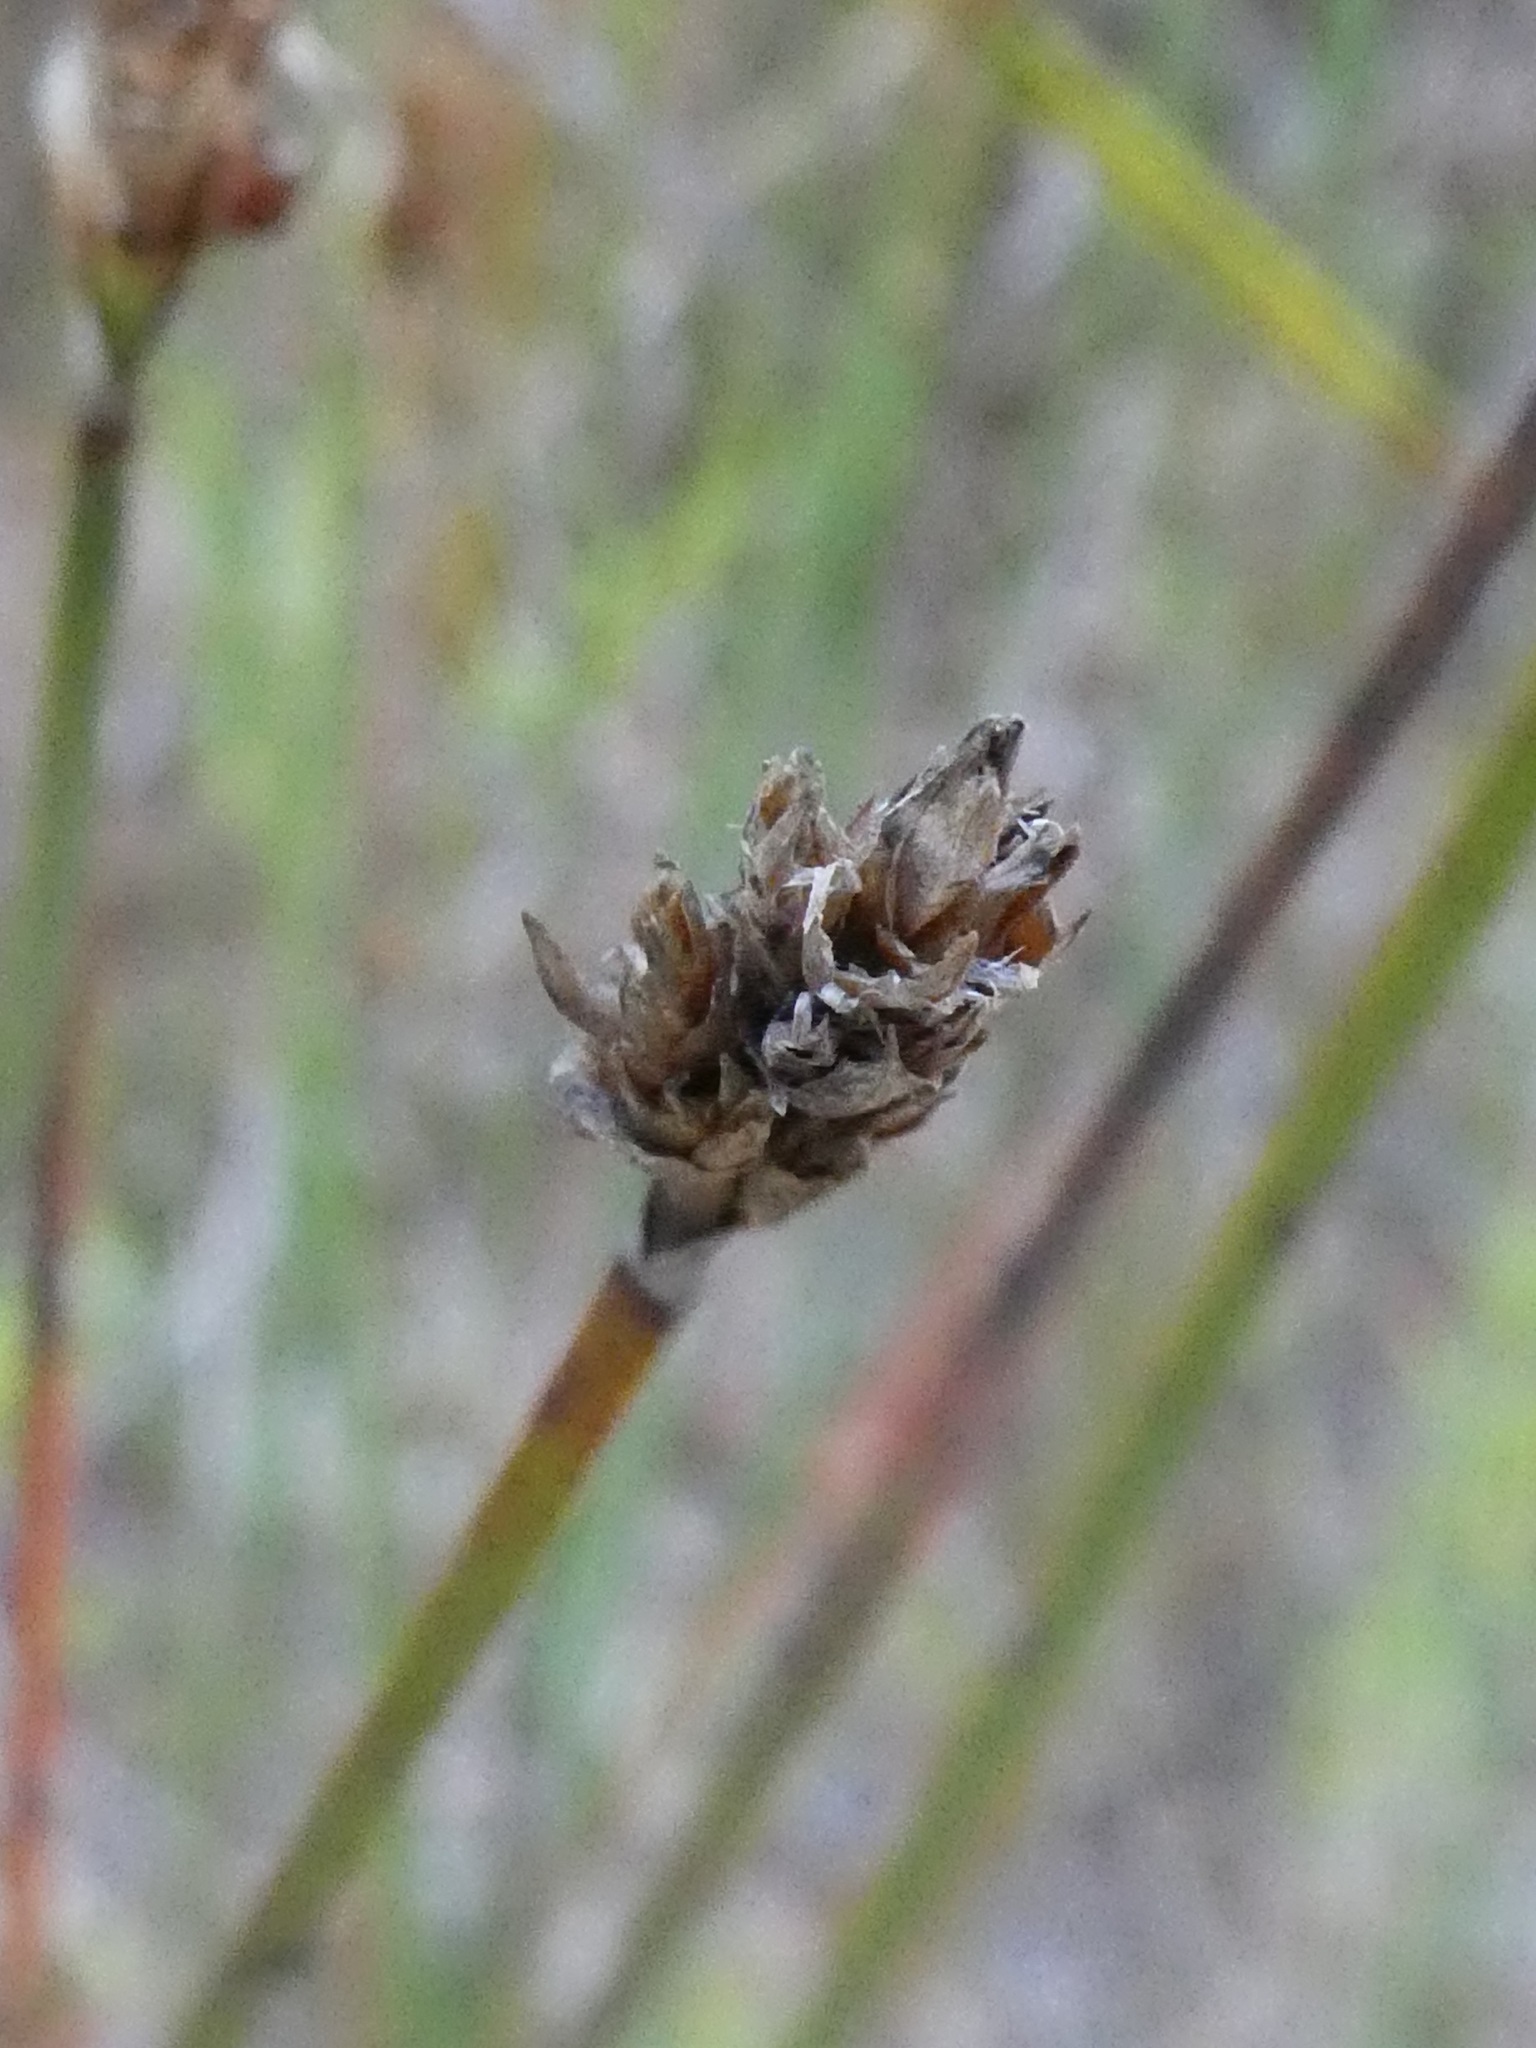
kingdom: Plantae
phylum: Tracheophyta
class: Liliopsida
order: Poales
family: Cyperaceae
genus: Lepidosperma
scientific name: Lepidosperma australe
